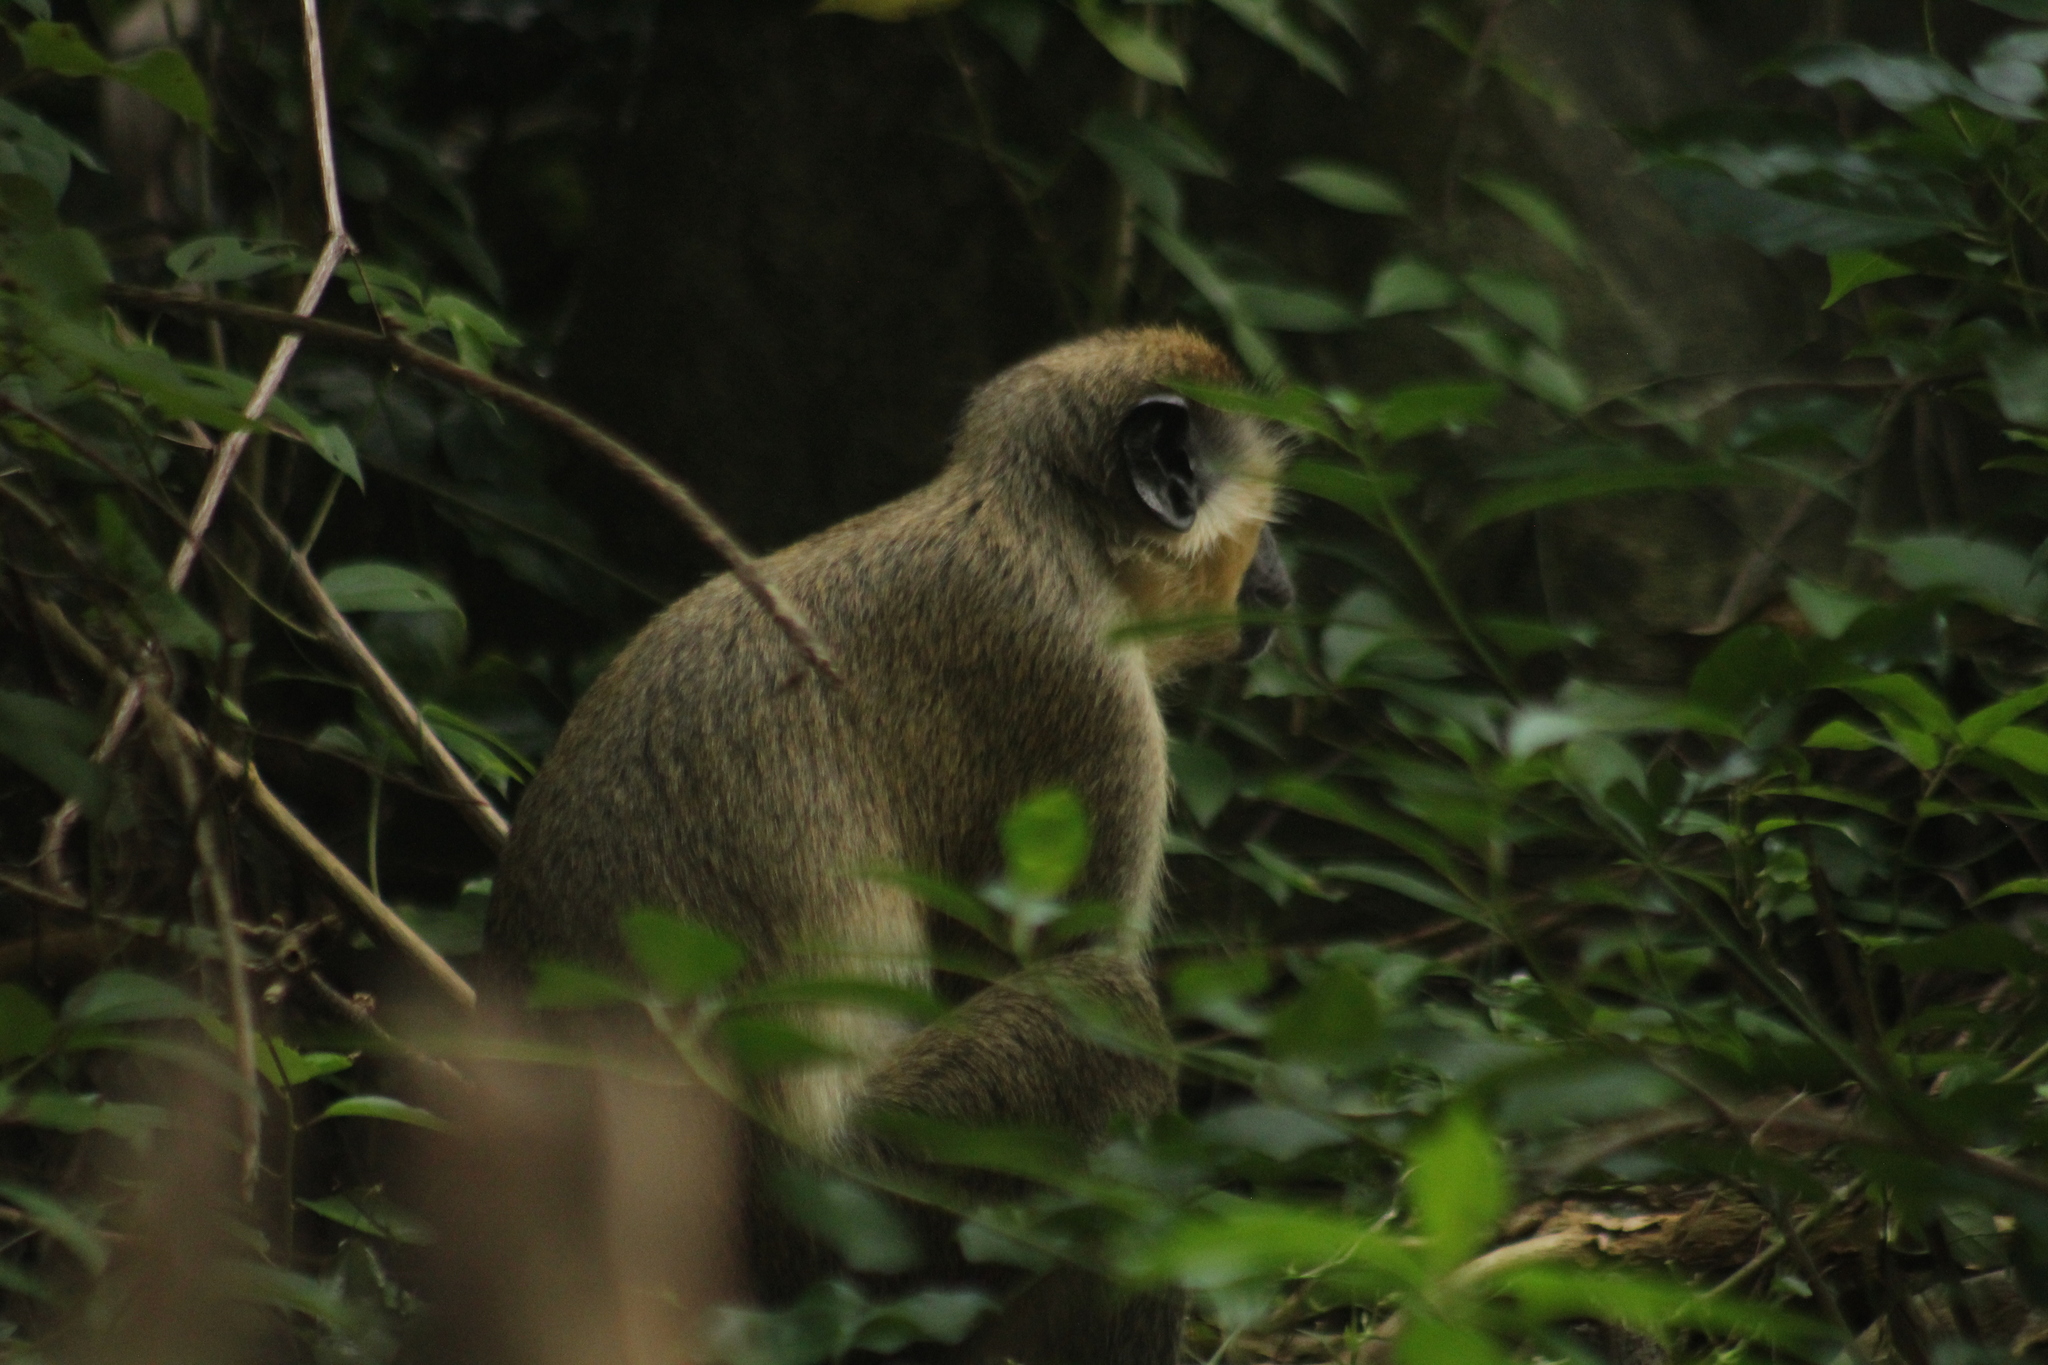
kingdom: Animalia
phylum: Chordata
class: Mammalia
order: Primates
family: Cercopithecidae
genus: Chlorocebus
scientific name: Chlorocebus sabaeus
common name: Green monkey
